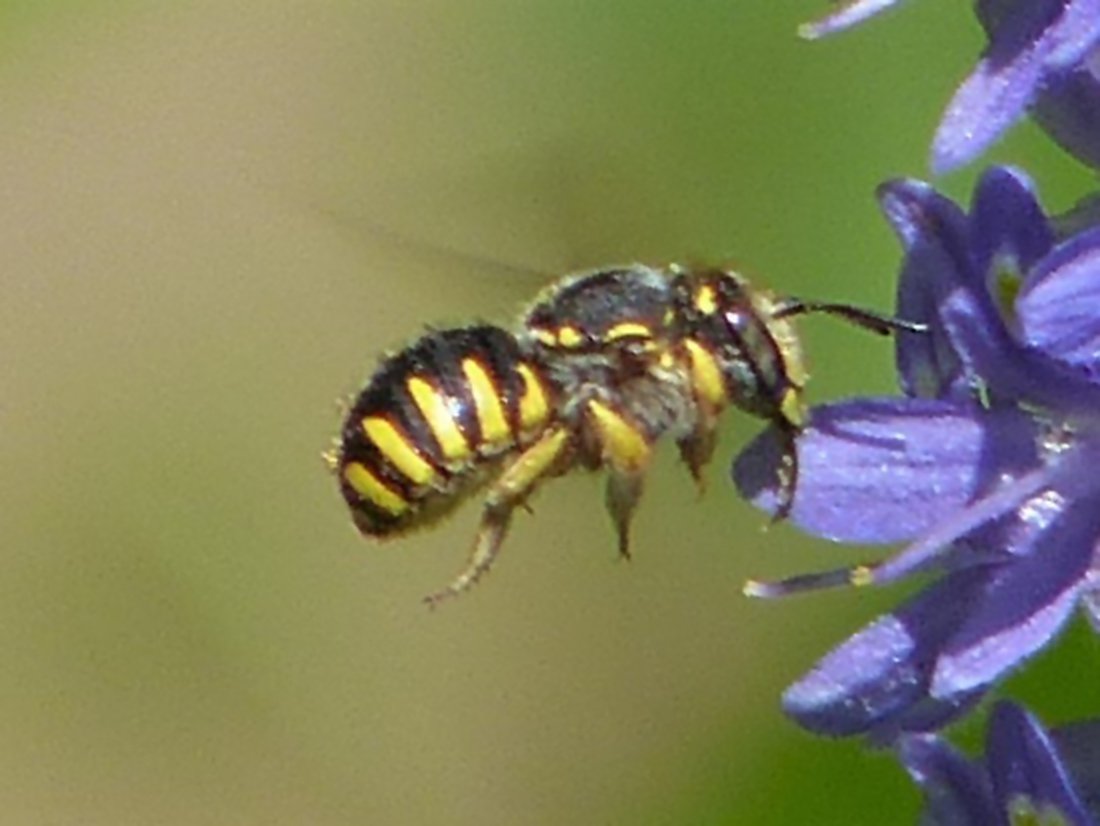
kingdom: Animalia
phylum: Arthropoda
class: Insecta
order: Hymenoptera
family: Megachilidae
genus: Anthidium
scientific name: Anthidium manicatum
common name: Wool carder bee
